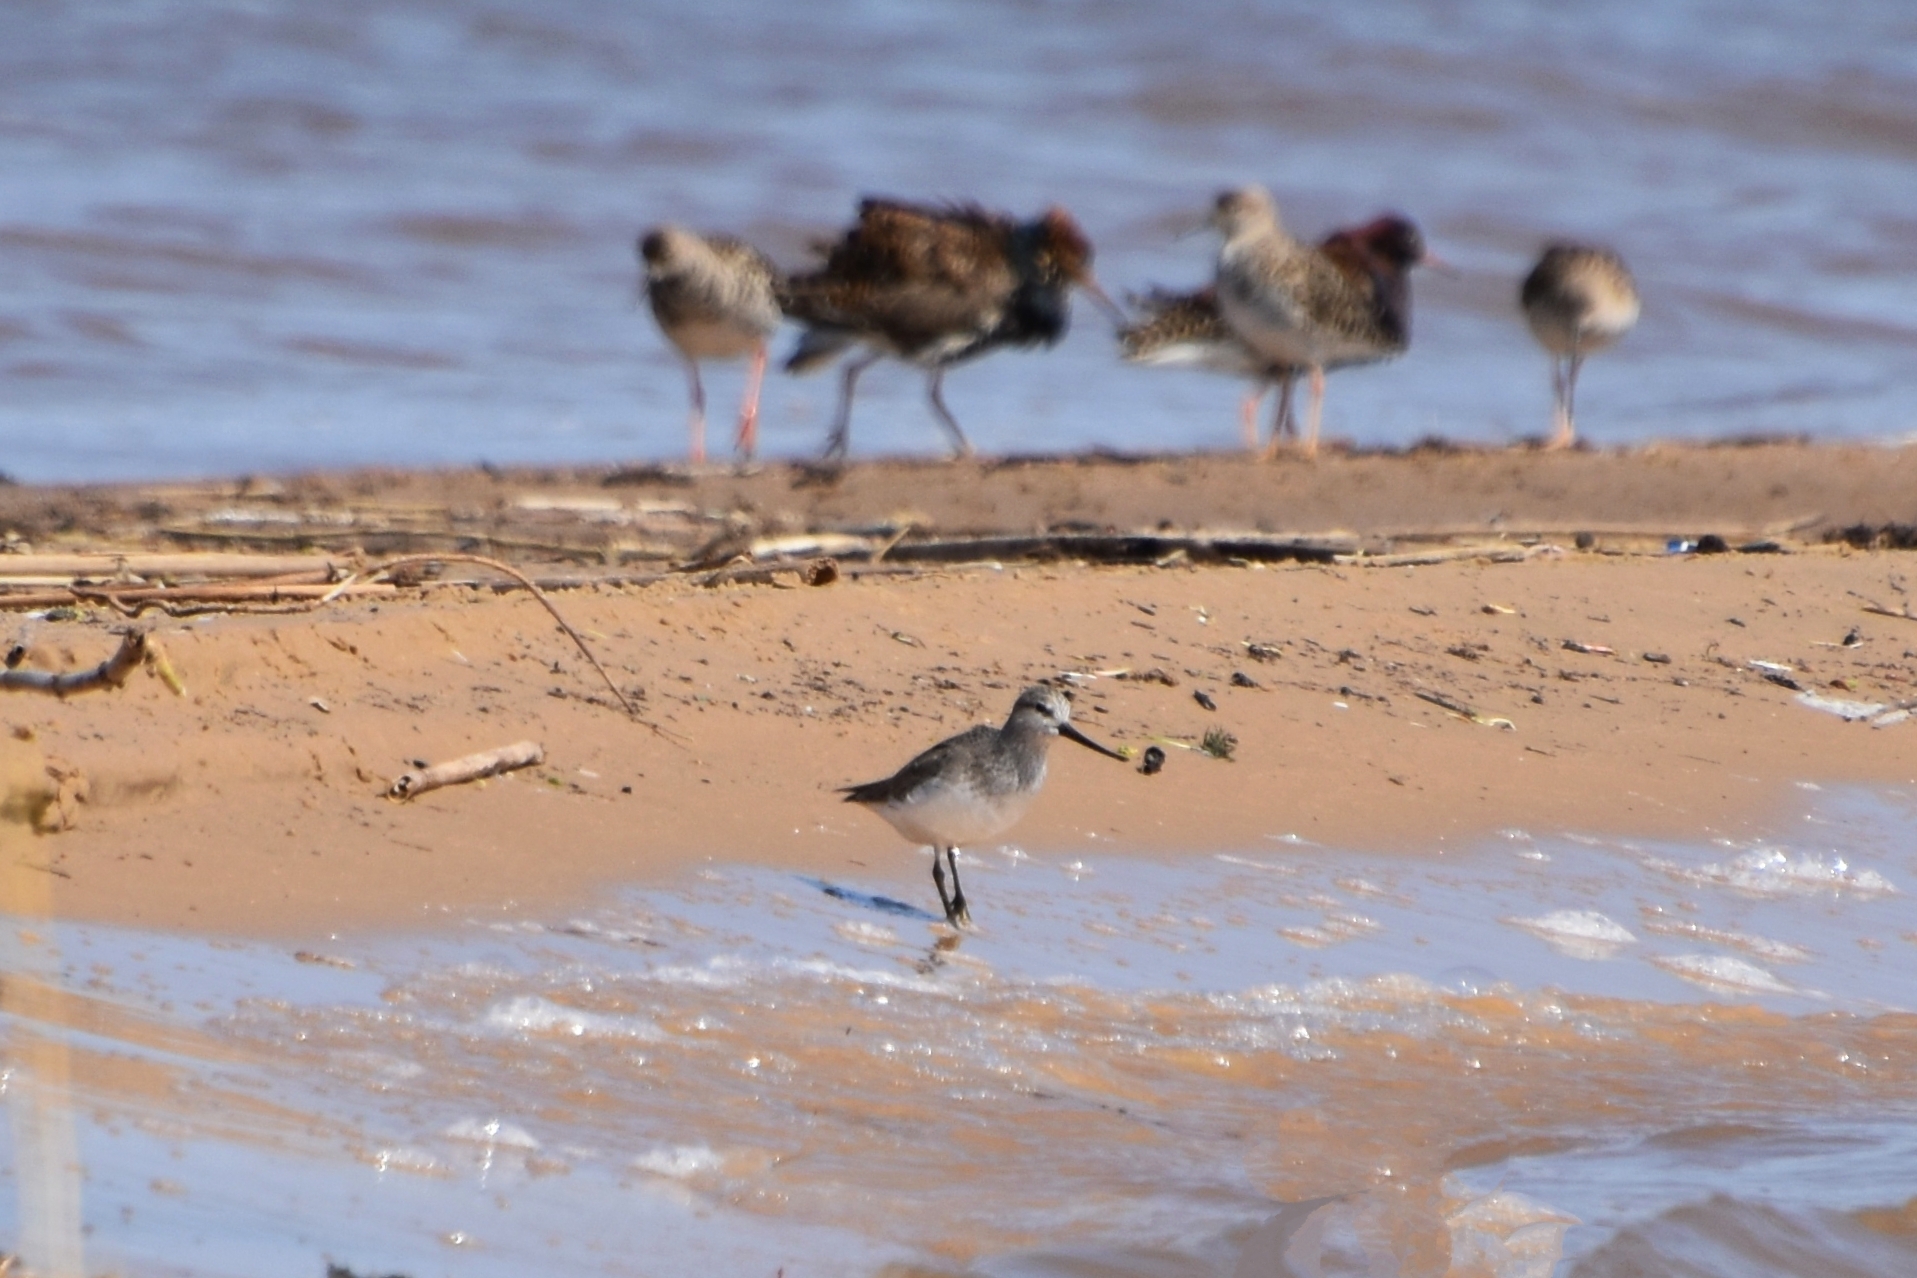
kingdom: Animalia
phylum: Chordata
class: Aves
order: Charadriiformes
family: Scolopacidae
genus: Xenus
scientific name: Xenus cinereus
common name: Terek sandpiper
